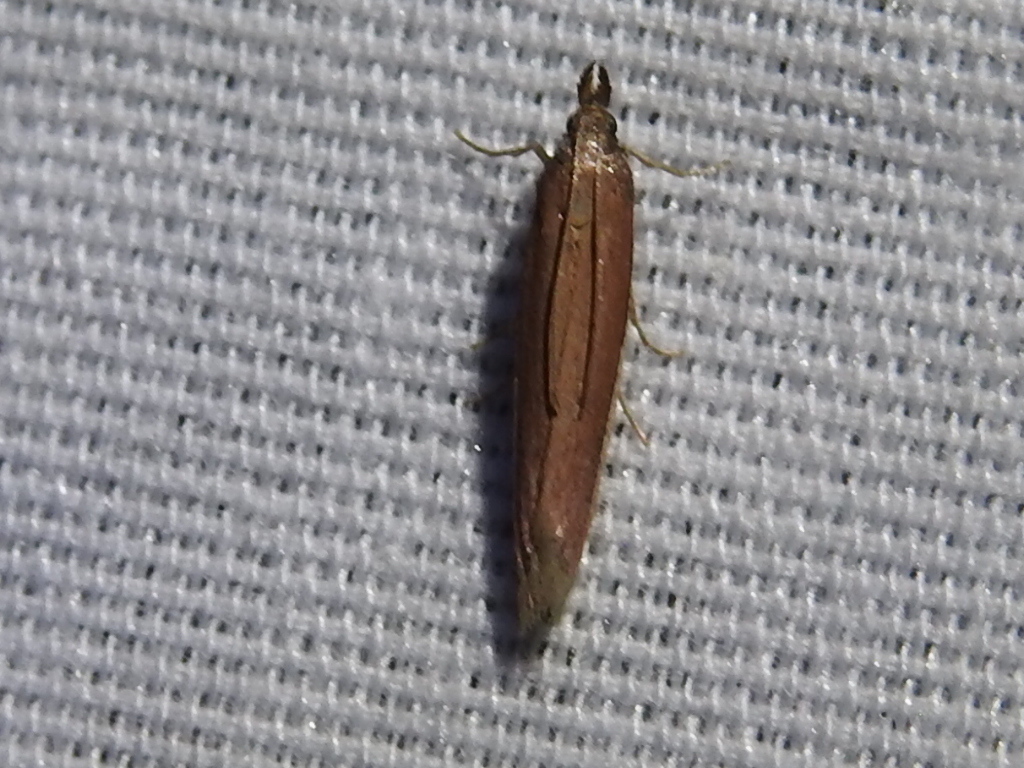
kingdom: Animalia
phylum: Arthropoda
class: Insecta
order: Lepidoptera
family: Pyralidae
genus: Tampa
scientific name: Tampa dimediatella
